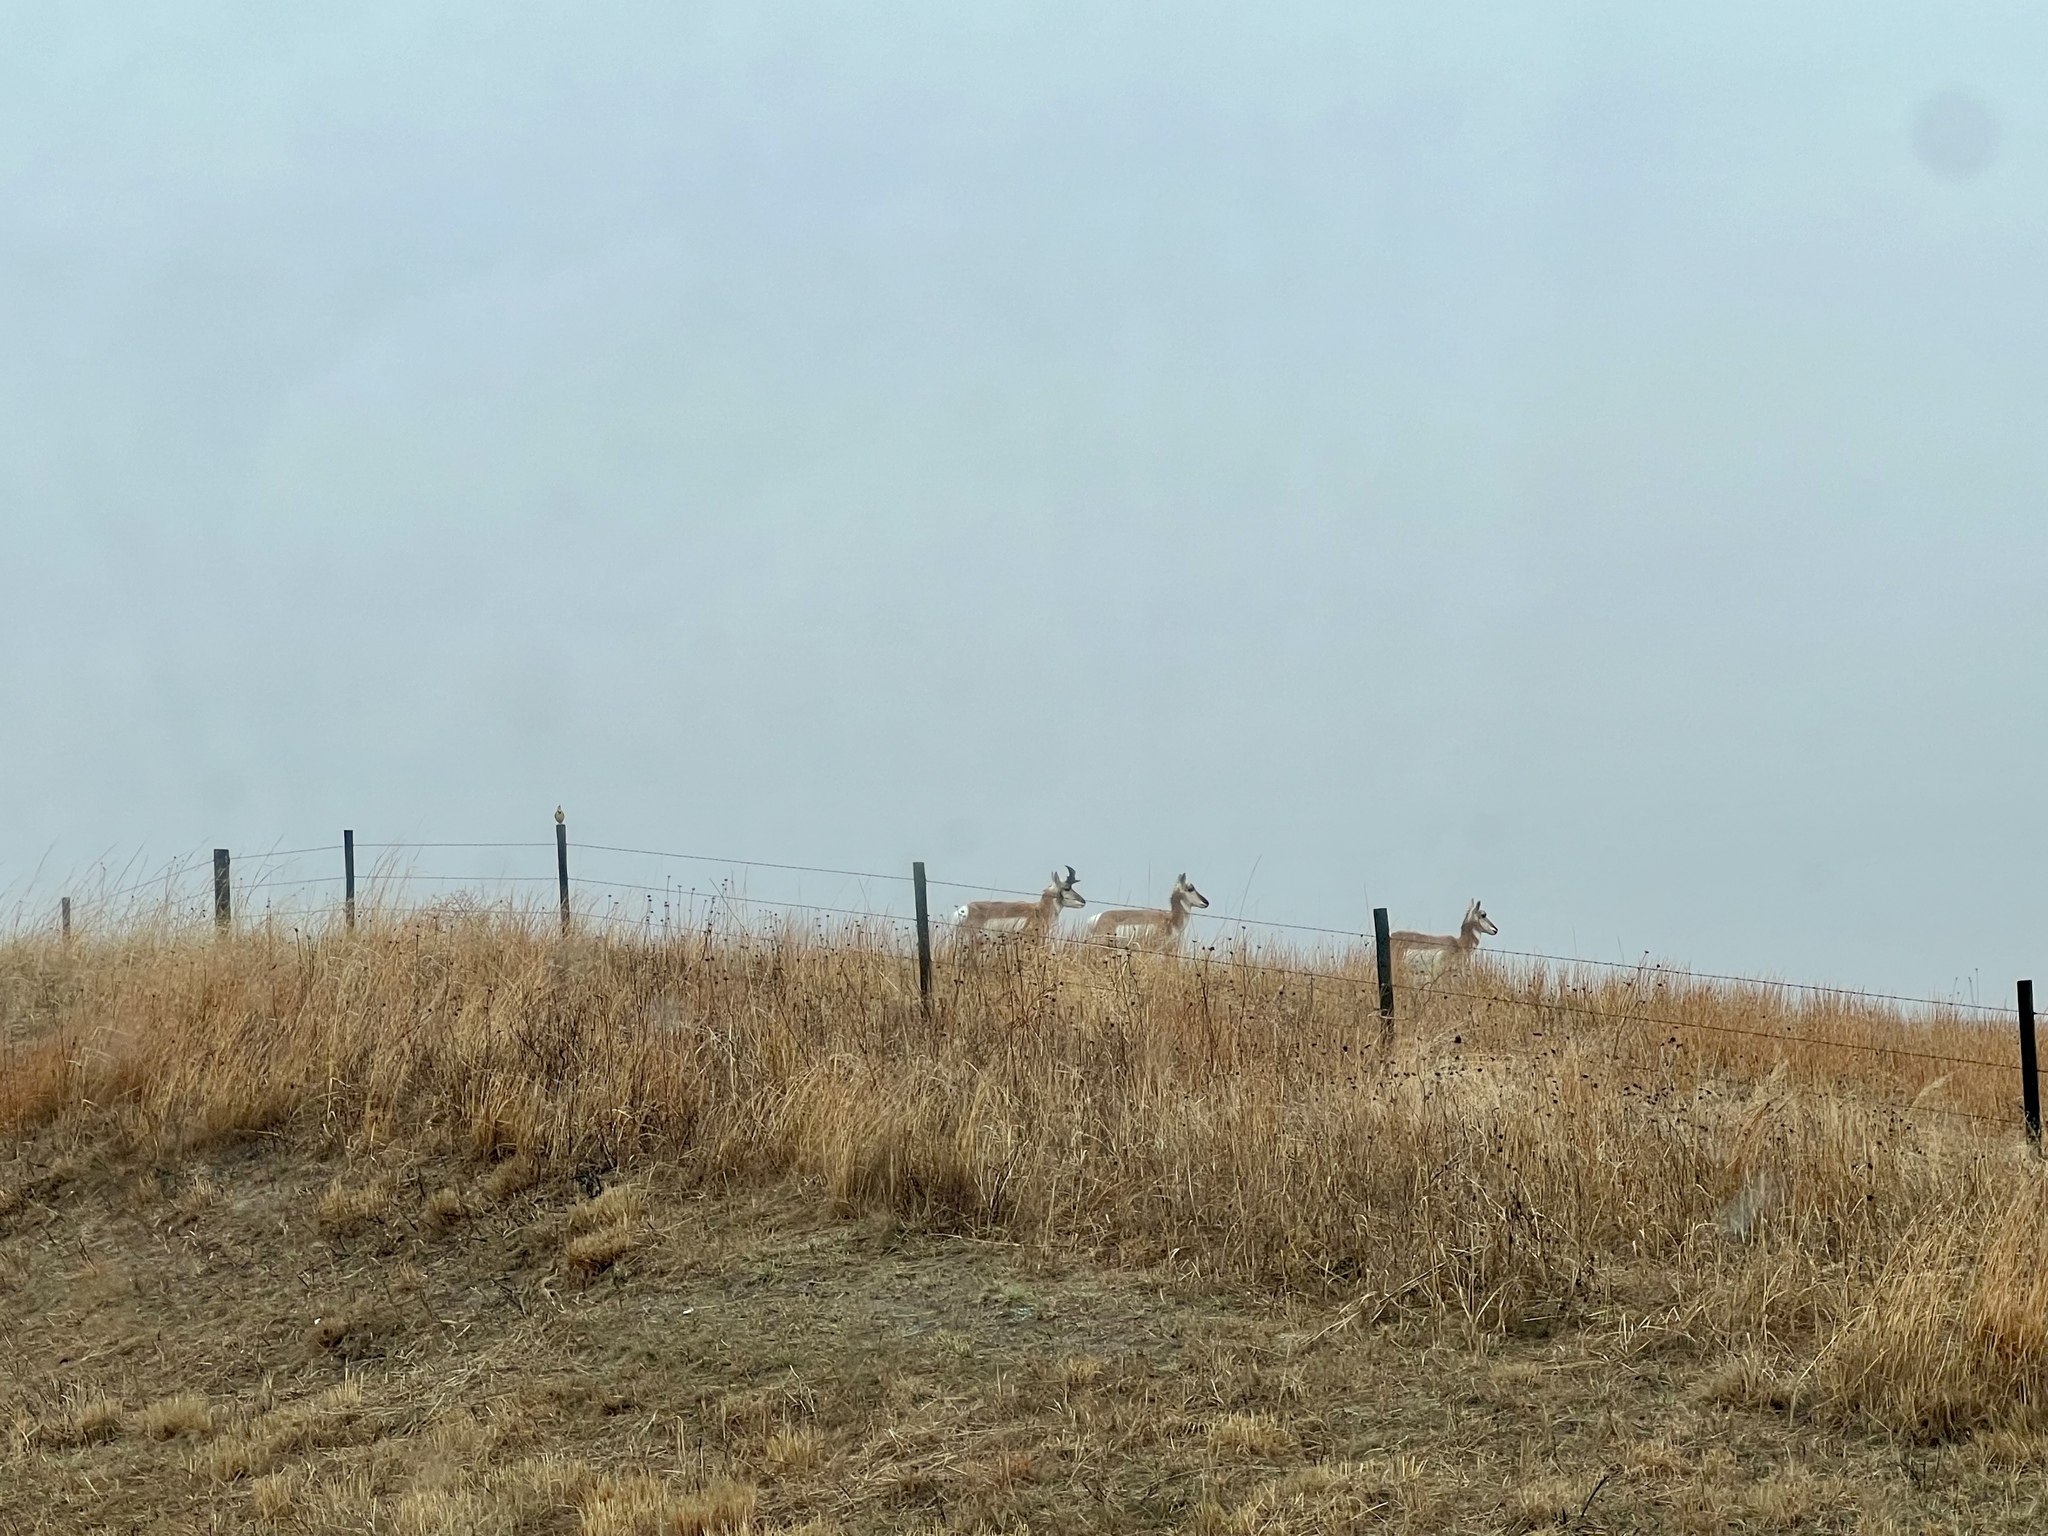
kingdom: Animalia
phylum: Chordata
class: Mammalia
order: Artiodactyla
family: Antilocapridae
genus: Antilocapra
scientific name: Antilocapra americana
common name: Pronghorn
